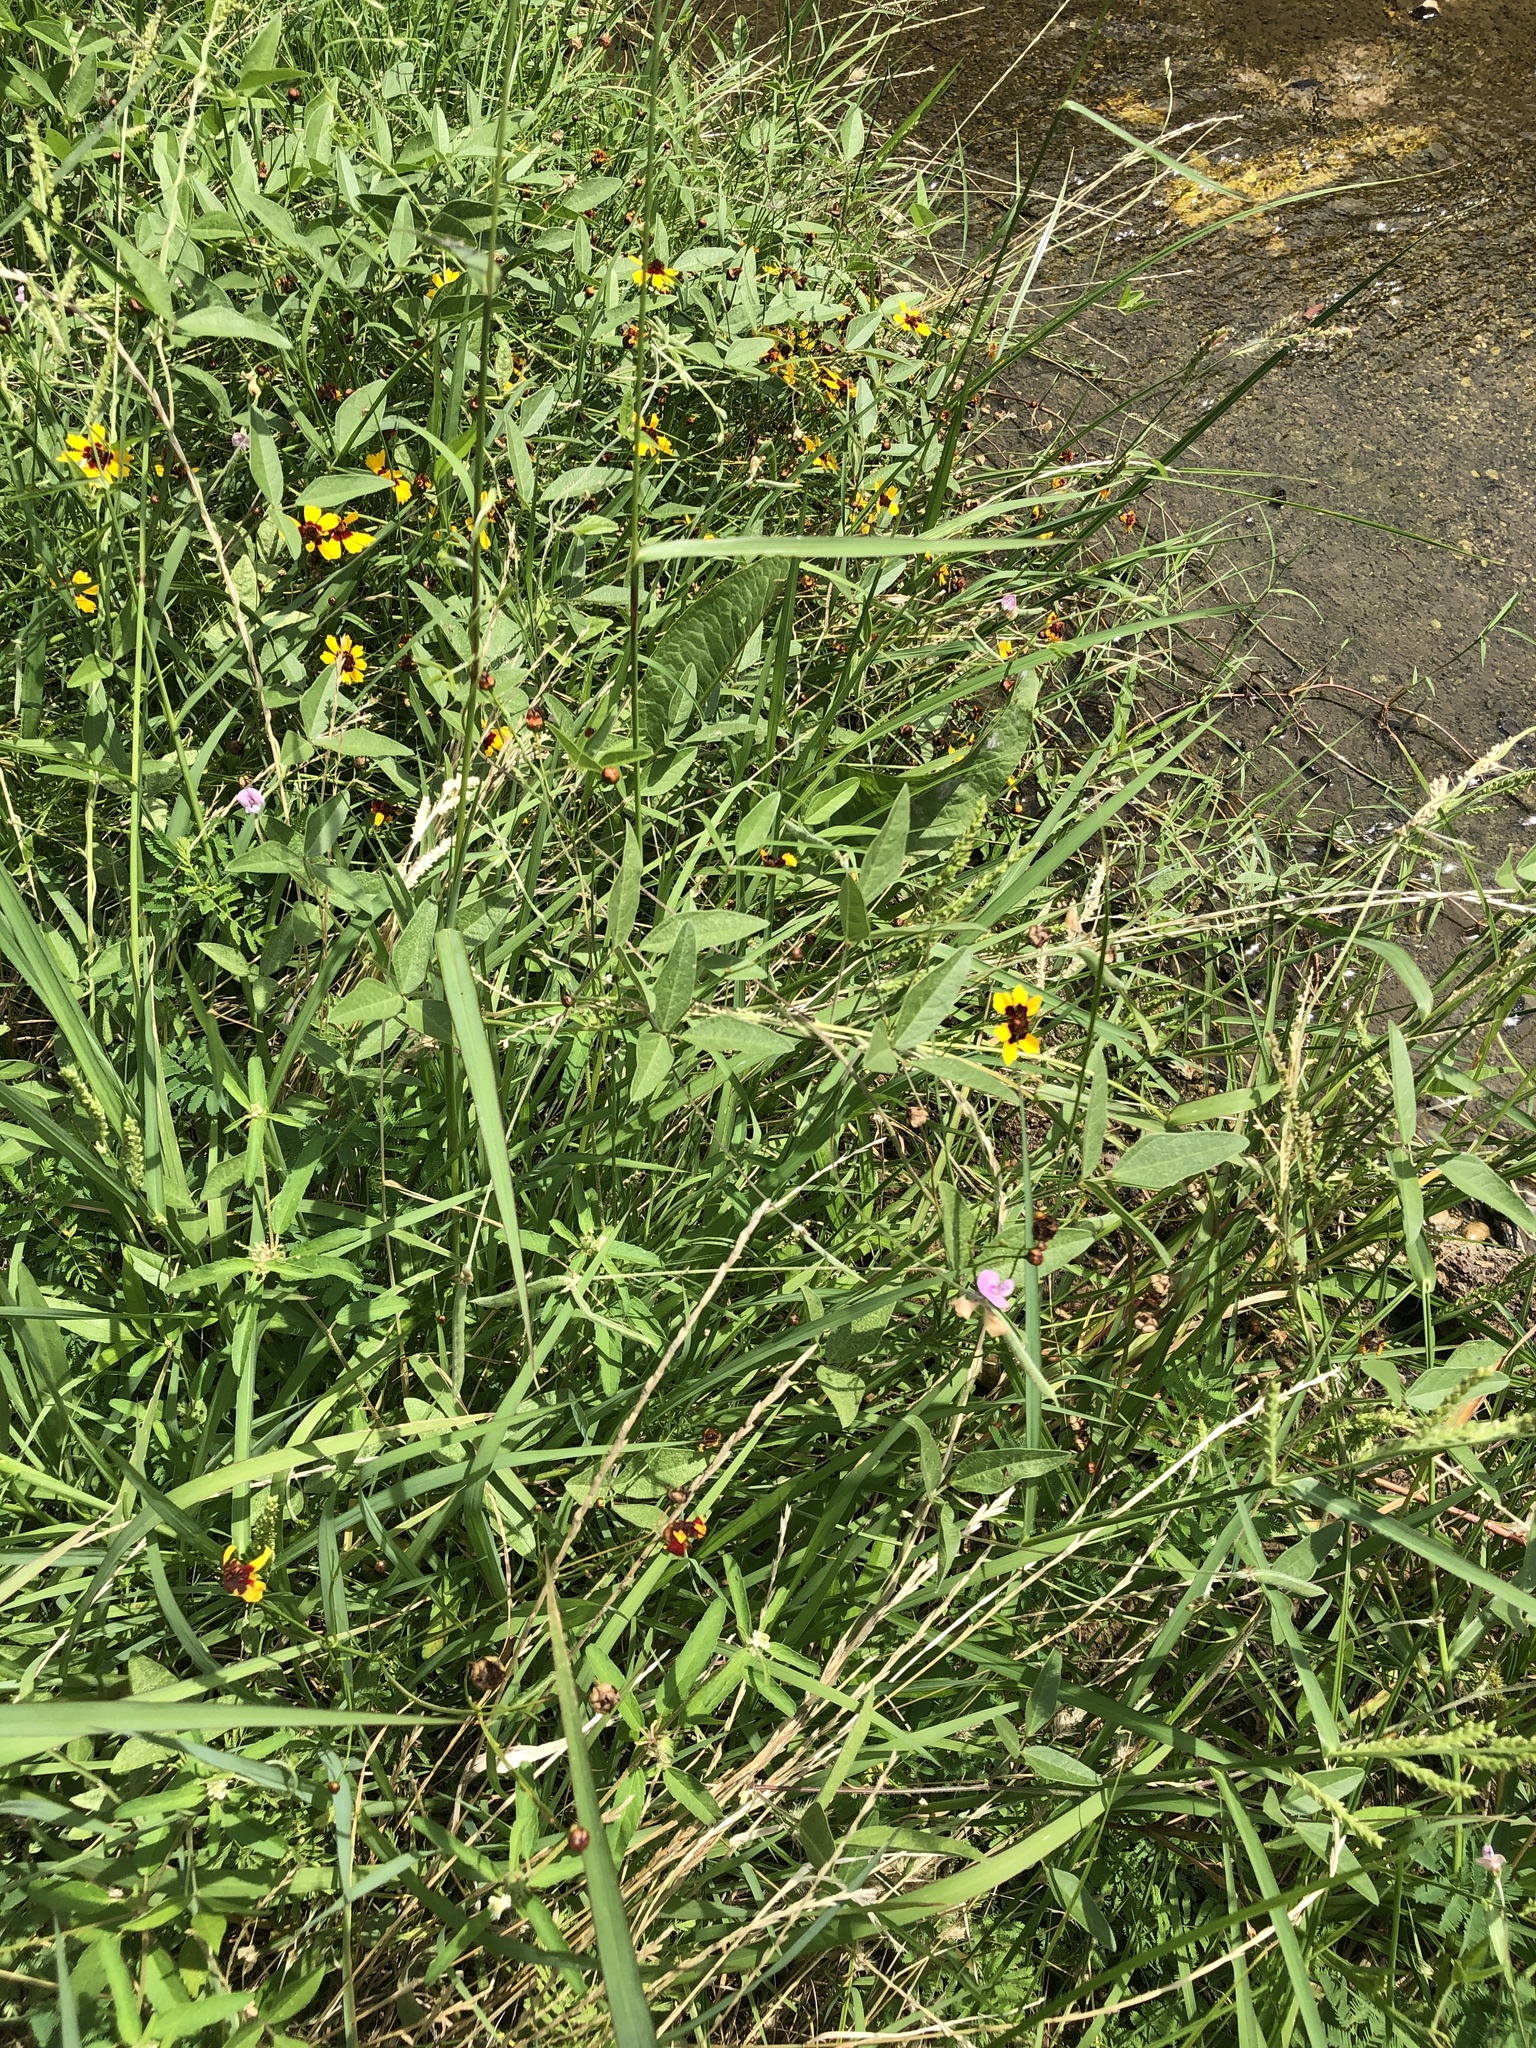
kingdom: Plantae
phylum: Tracheophyta
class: Magnoliopsida
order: Fabales
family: Fabaceae
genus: Strophostyles
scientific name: Strophostyles helvola
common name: Trailing wild bean
